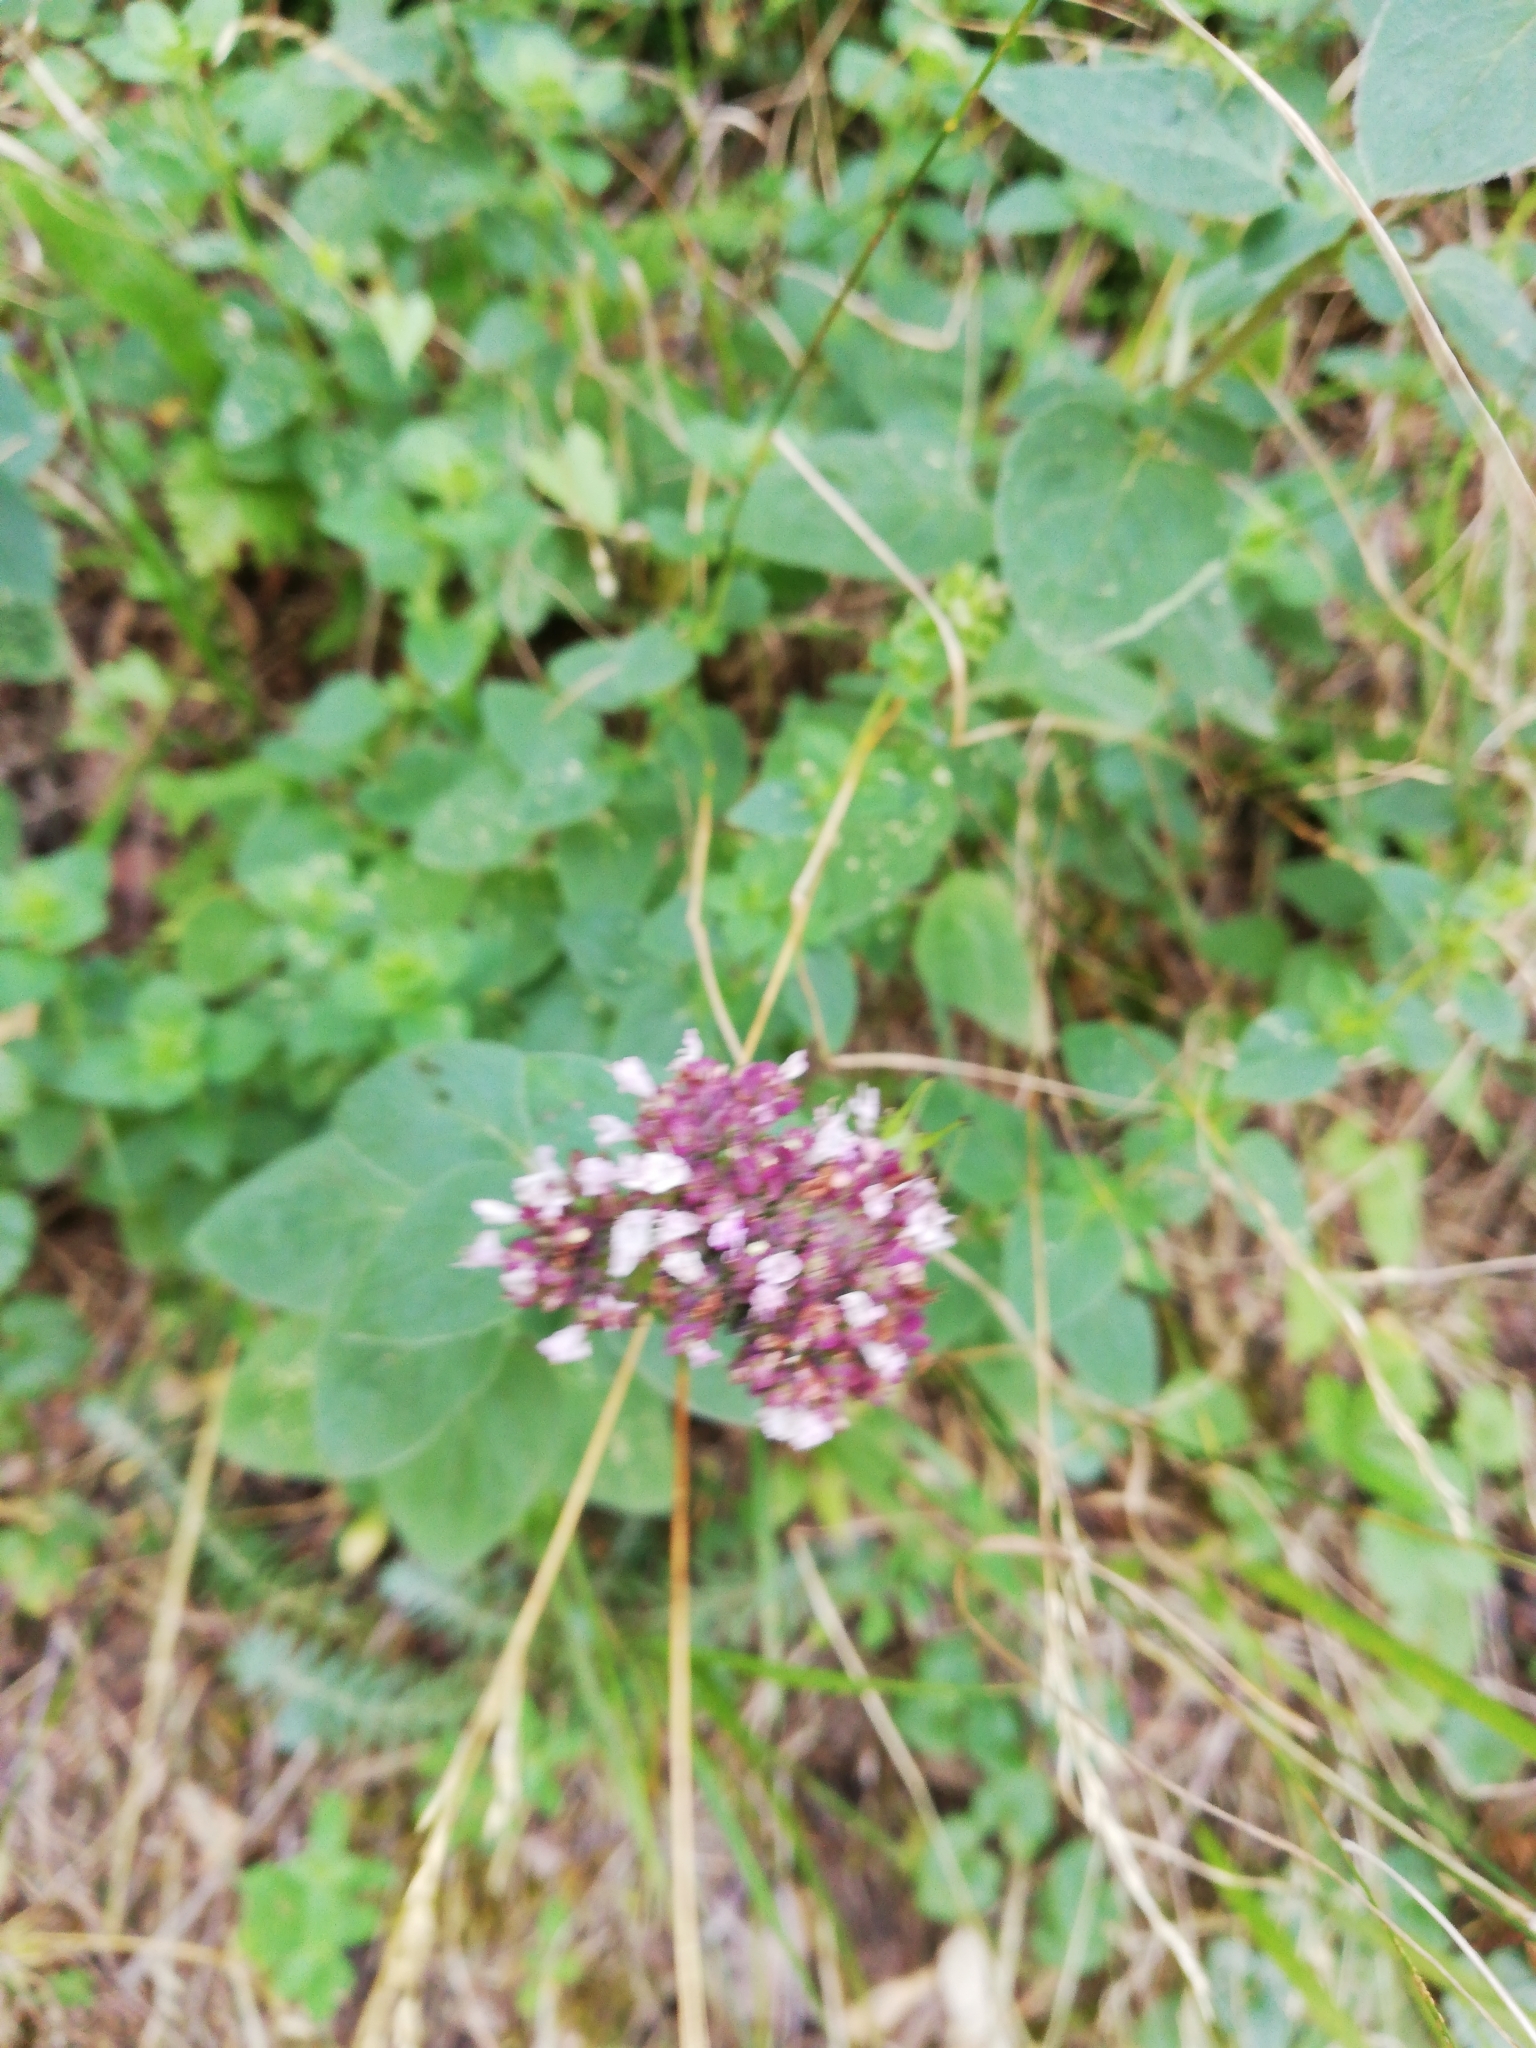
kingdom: Plantae
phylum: Tracheophyta
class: Magnoliopsida
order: Lamiales
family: Lamiaceae
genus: Origanum
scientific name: Origanum vulgare
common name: Wild marjoram
